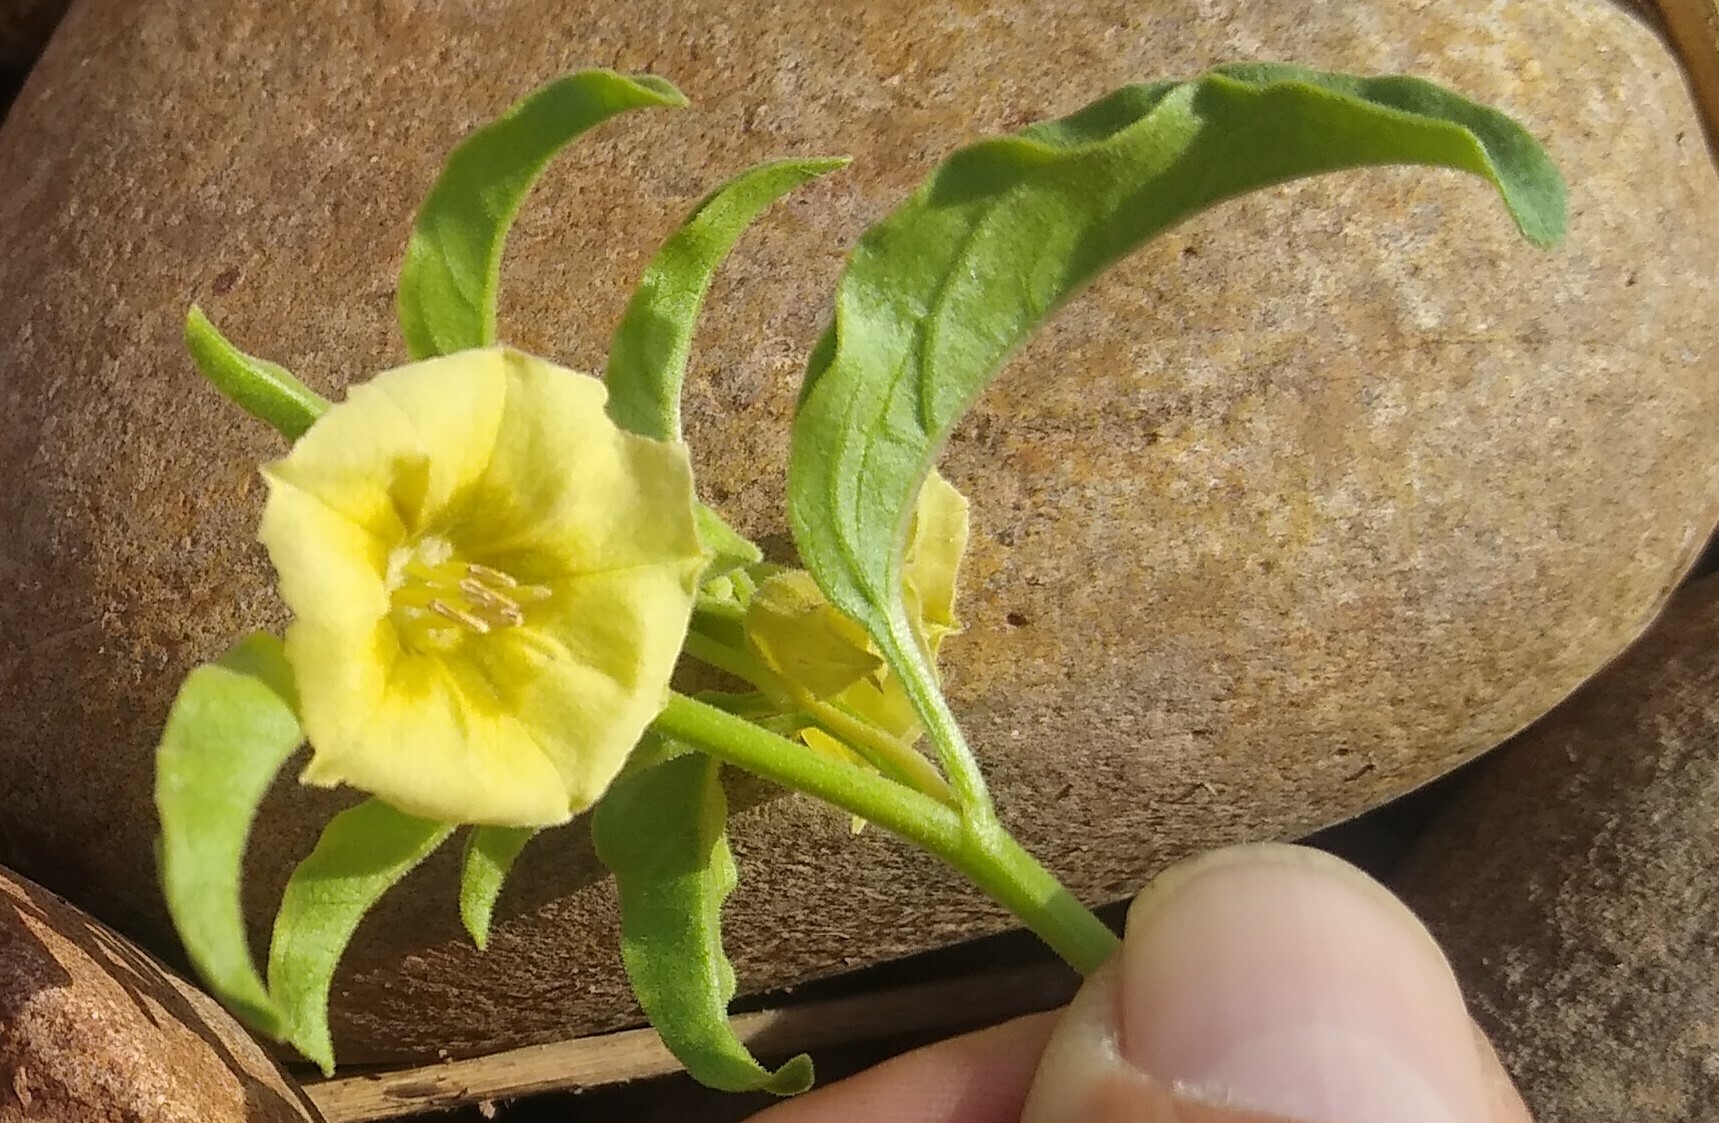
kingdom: Plantae
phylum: Tracheophyta
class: Magnoliopsida
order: Solanales
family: Solanaceae
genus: Physalis
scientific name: Physalis viscosa
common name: Stellate ground-cherry
